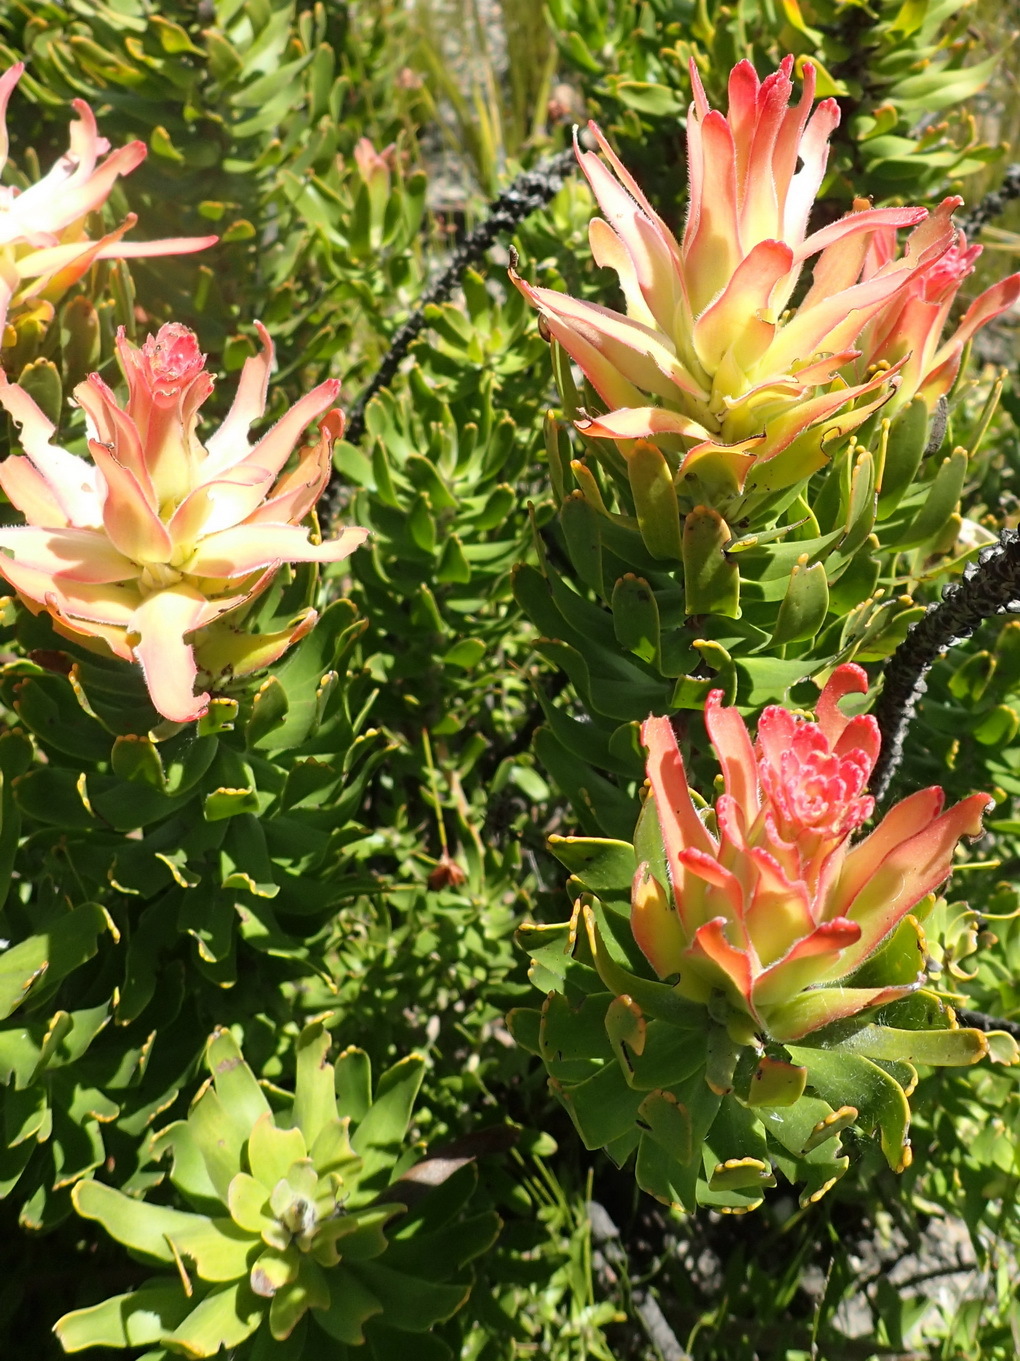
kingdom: Plantae
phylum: Tracheophyta
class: Magnoliopsida
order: Proteales
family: Proteaceae
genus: Mimetes
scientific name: Mimetes cucullatus
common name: Common pagoda
